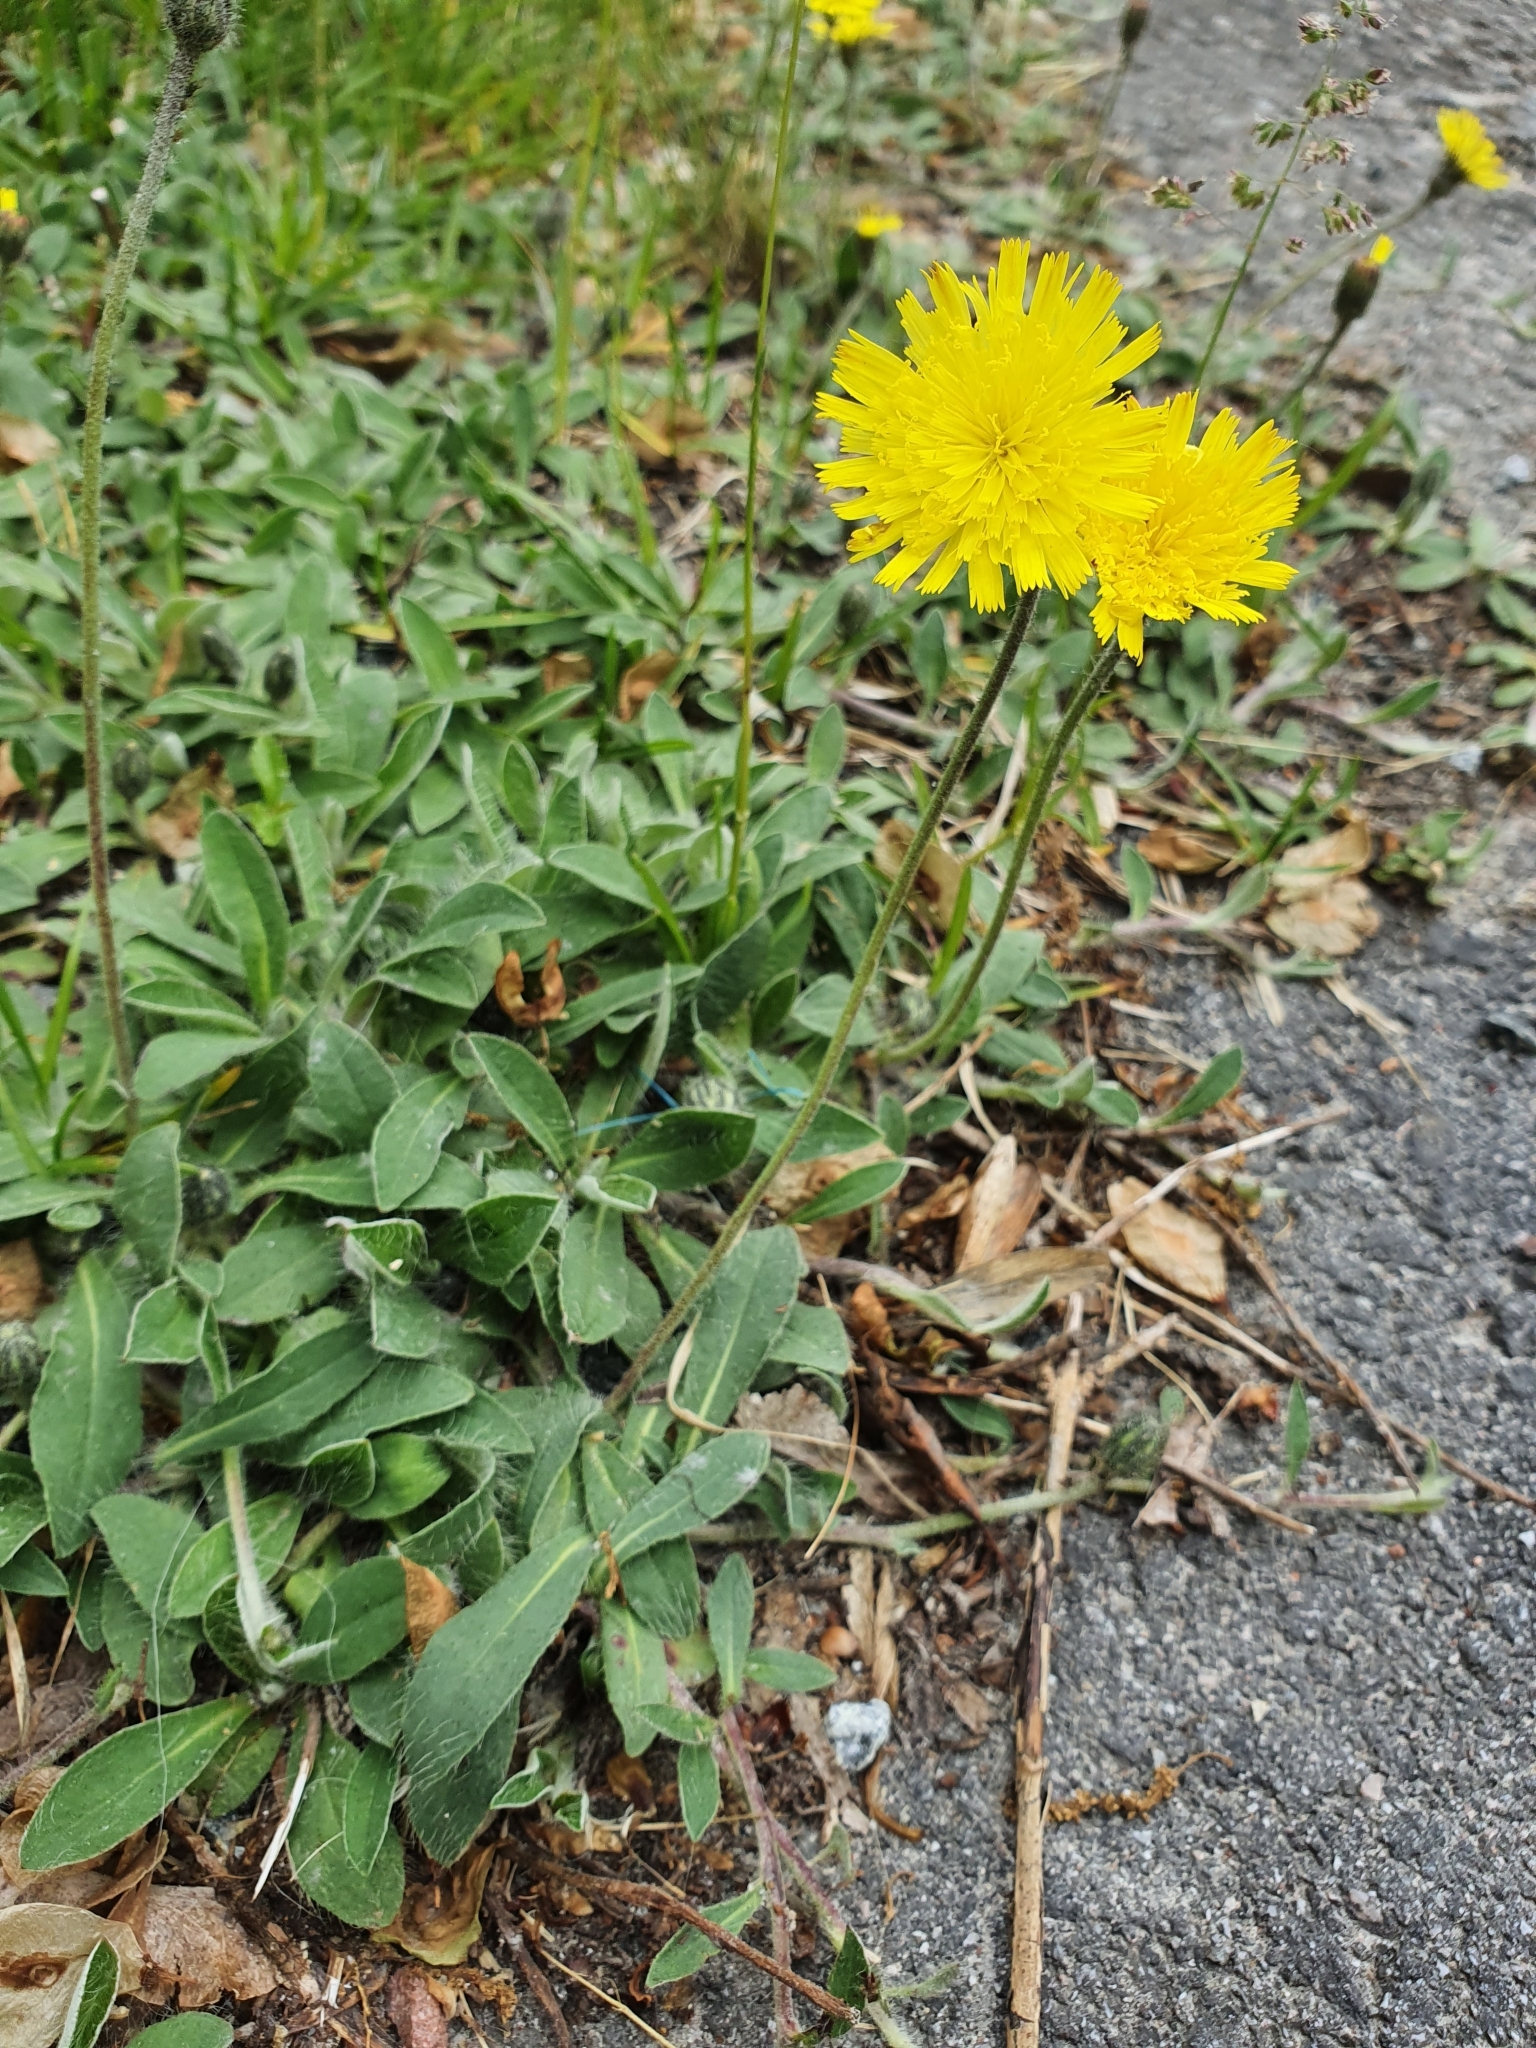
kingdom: Plantae
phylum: Tracheophyta
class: Magnoliopsida
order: Asterales
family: Asteraceae
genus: Pilosella
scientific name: Pilosella officinarum
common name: Mouse-ear hawkweed
